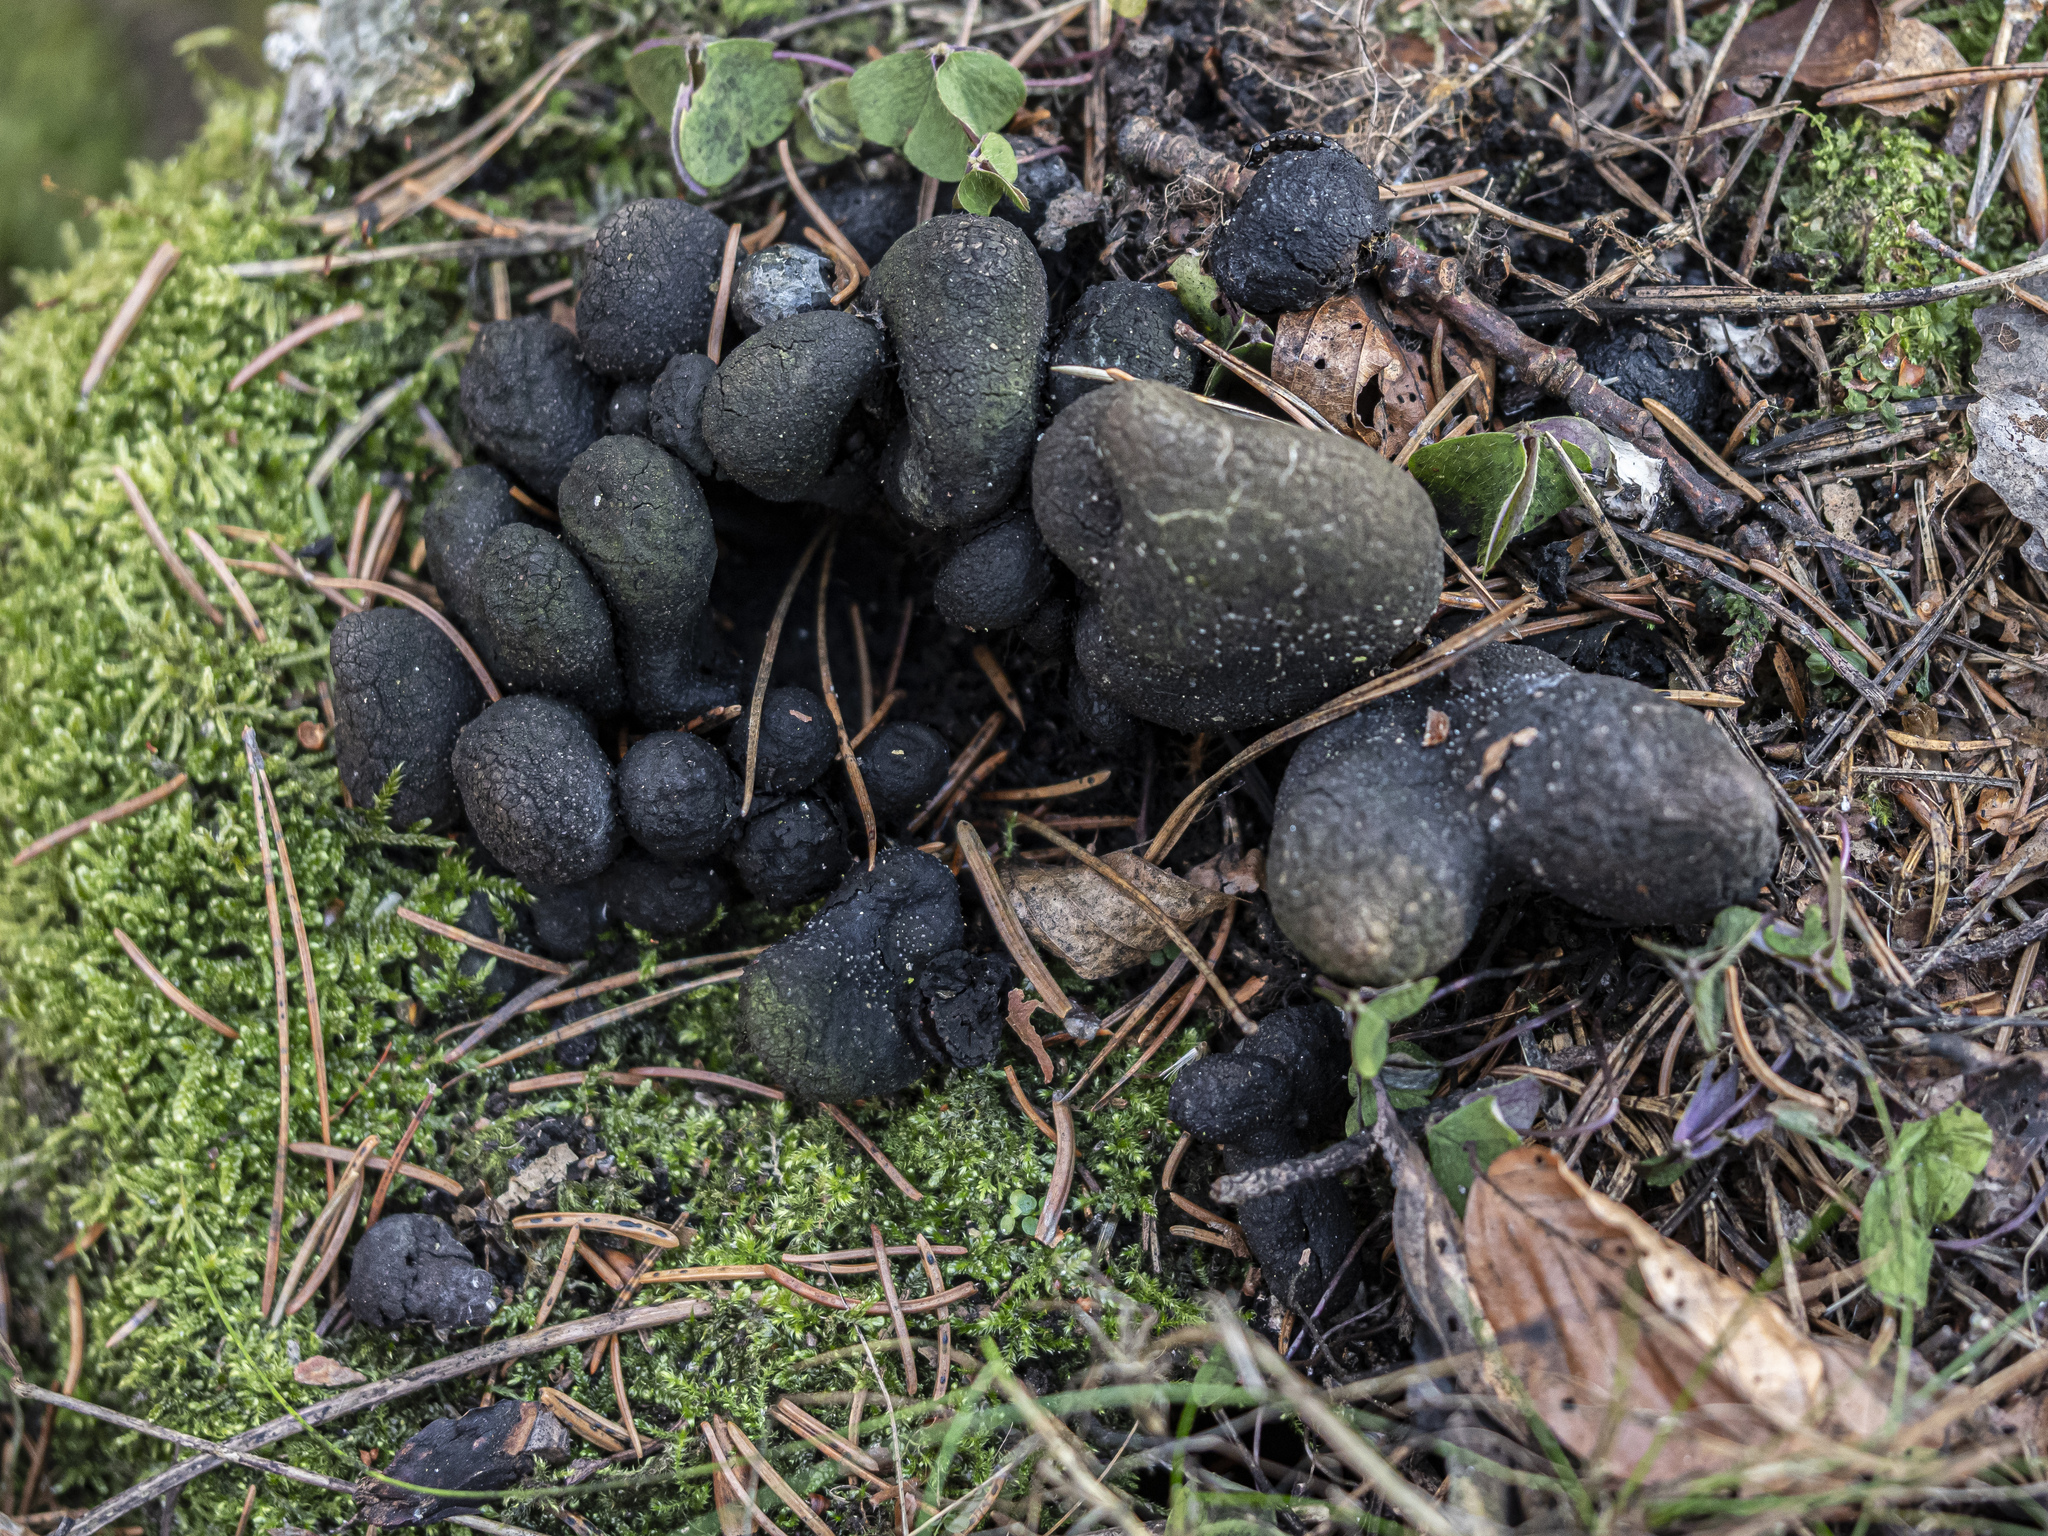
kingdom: Fungi
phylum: Ascomycota
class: Sordariomycetes
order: Xylariales
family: Xylariaceae
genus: Xylaria
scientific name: Xylaria polymorpha
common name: Dead man's fingers
